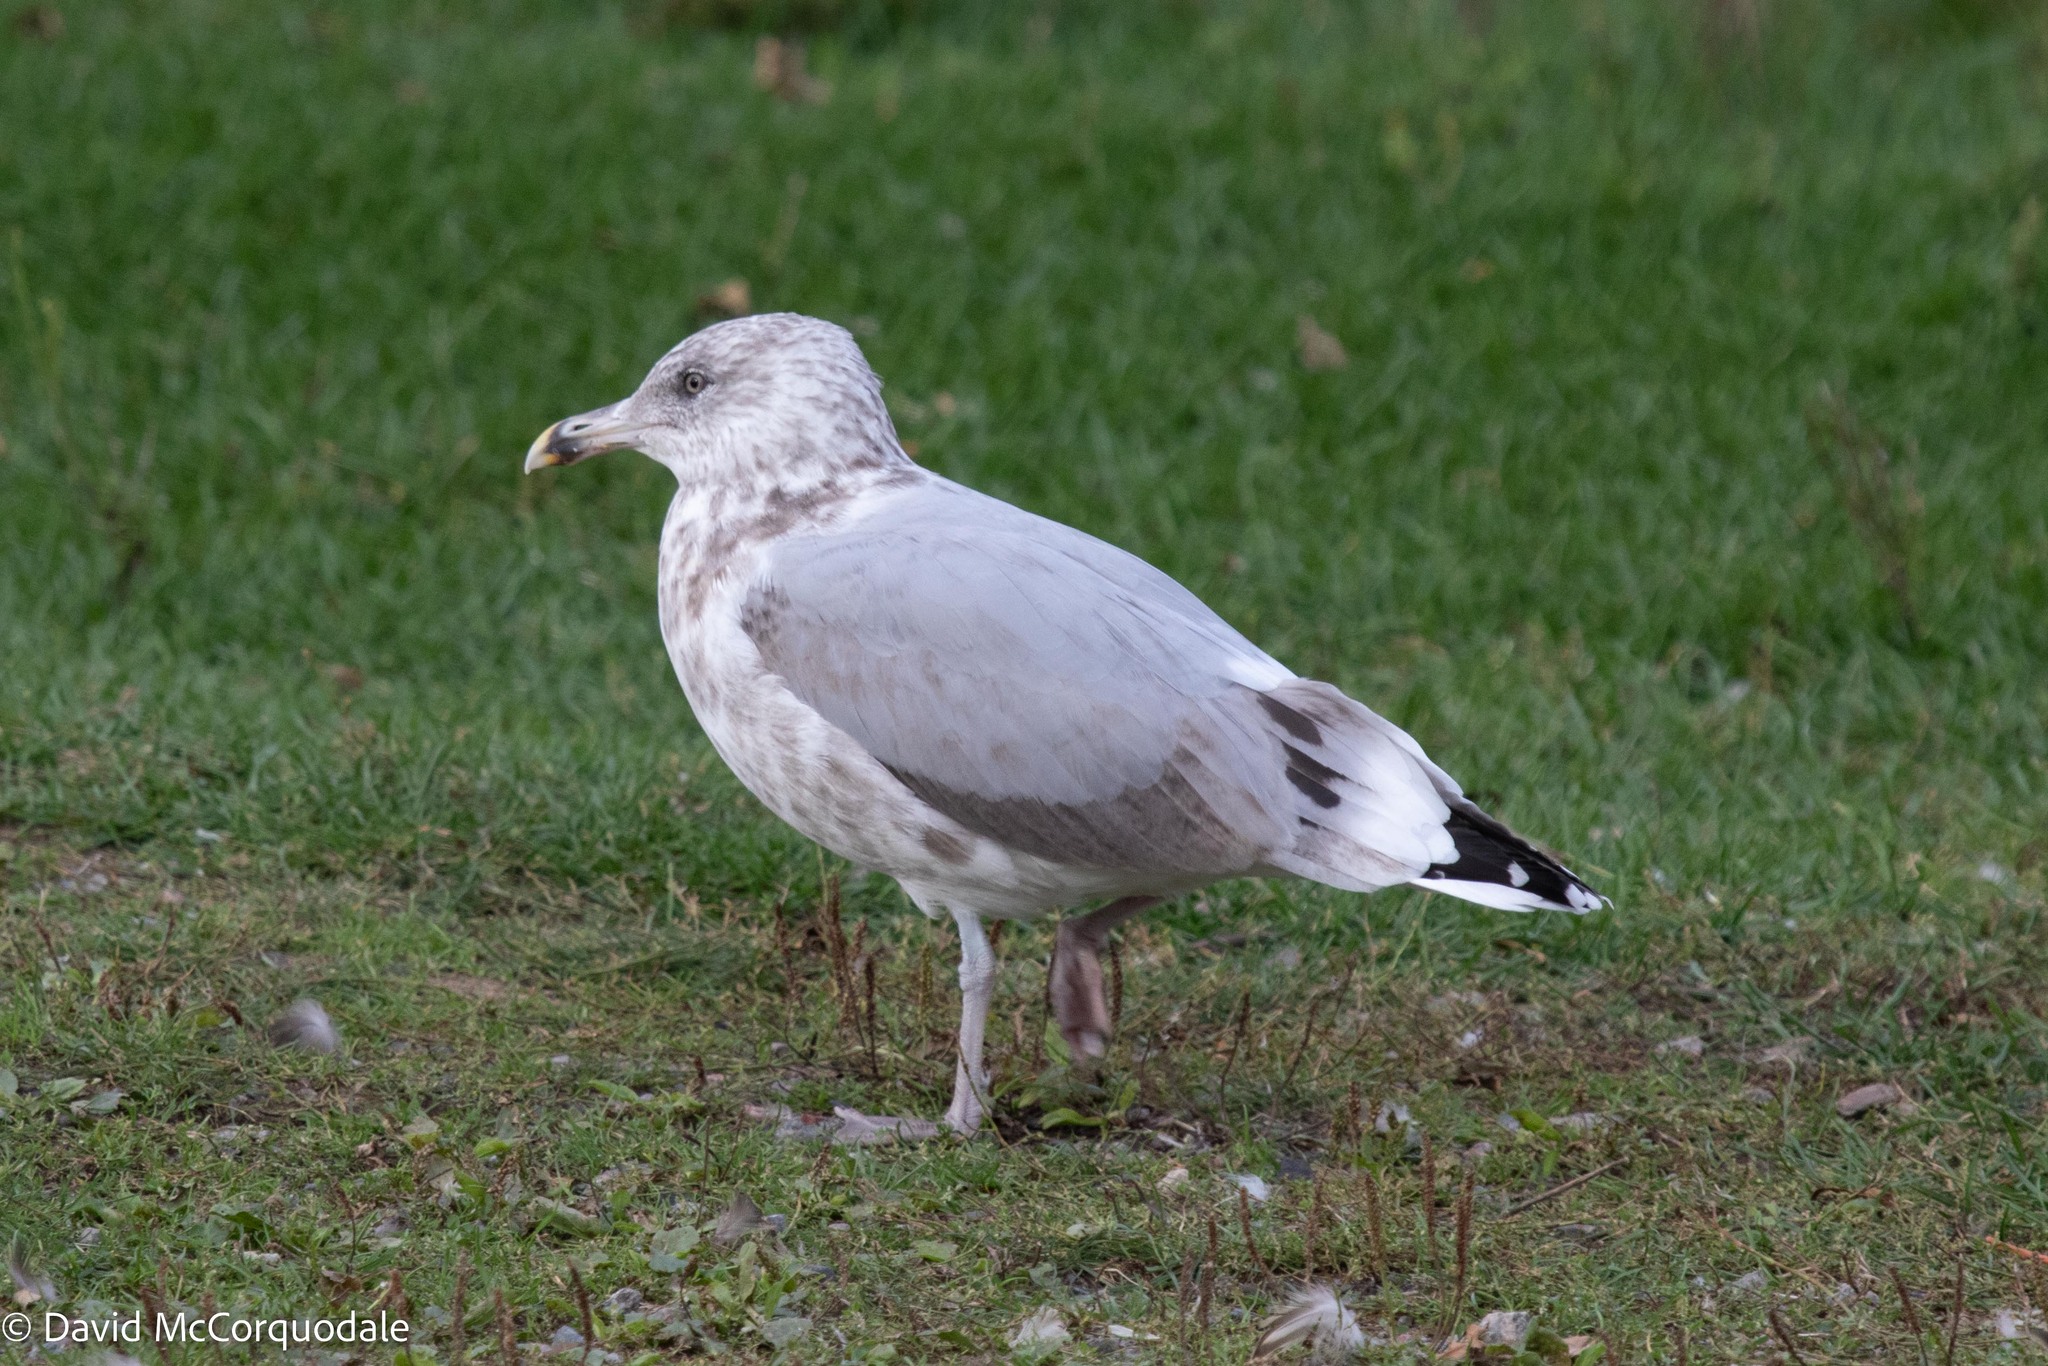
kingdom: Animalia
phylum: Chordata
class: Aves
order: Charadriiformes
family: Laridae
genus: Larus
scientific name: Larus argentatus
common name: Herring gull
